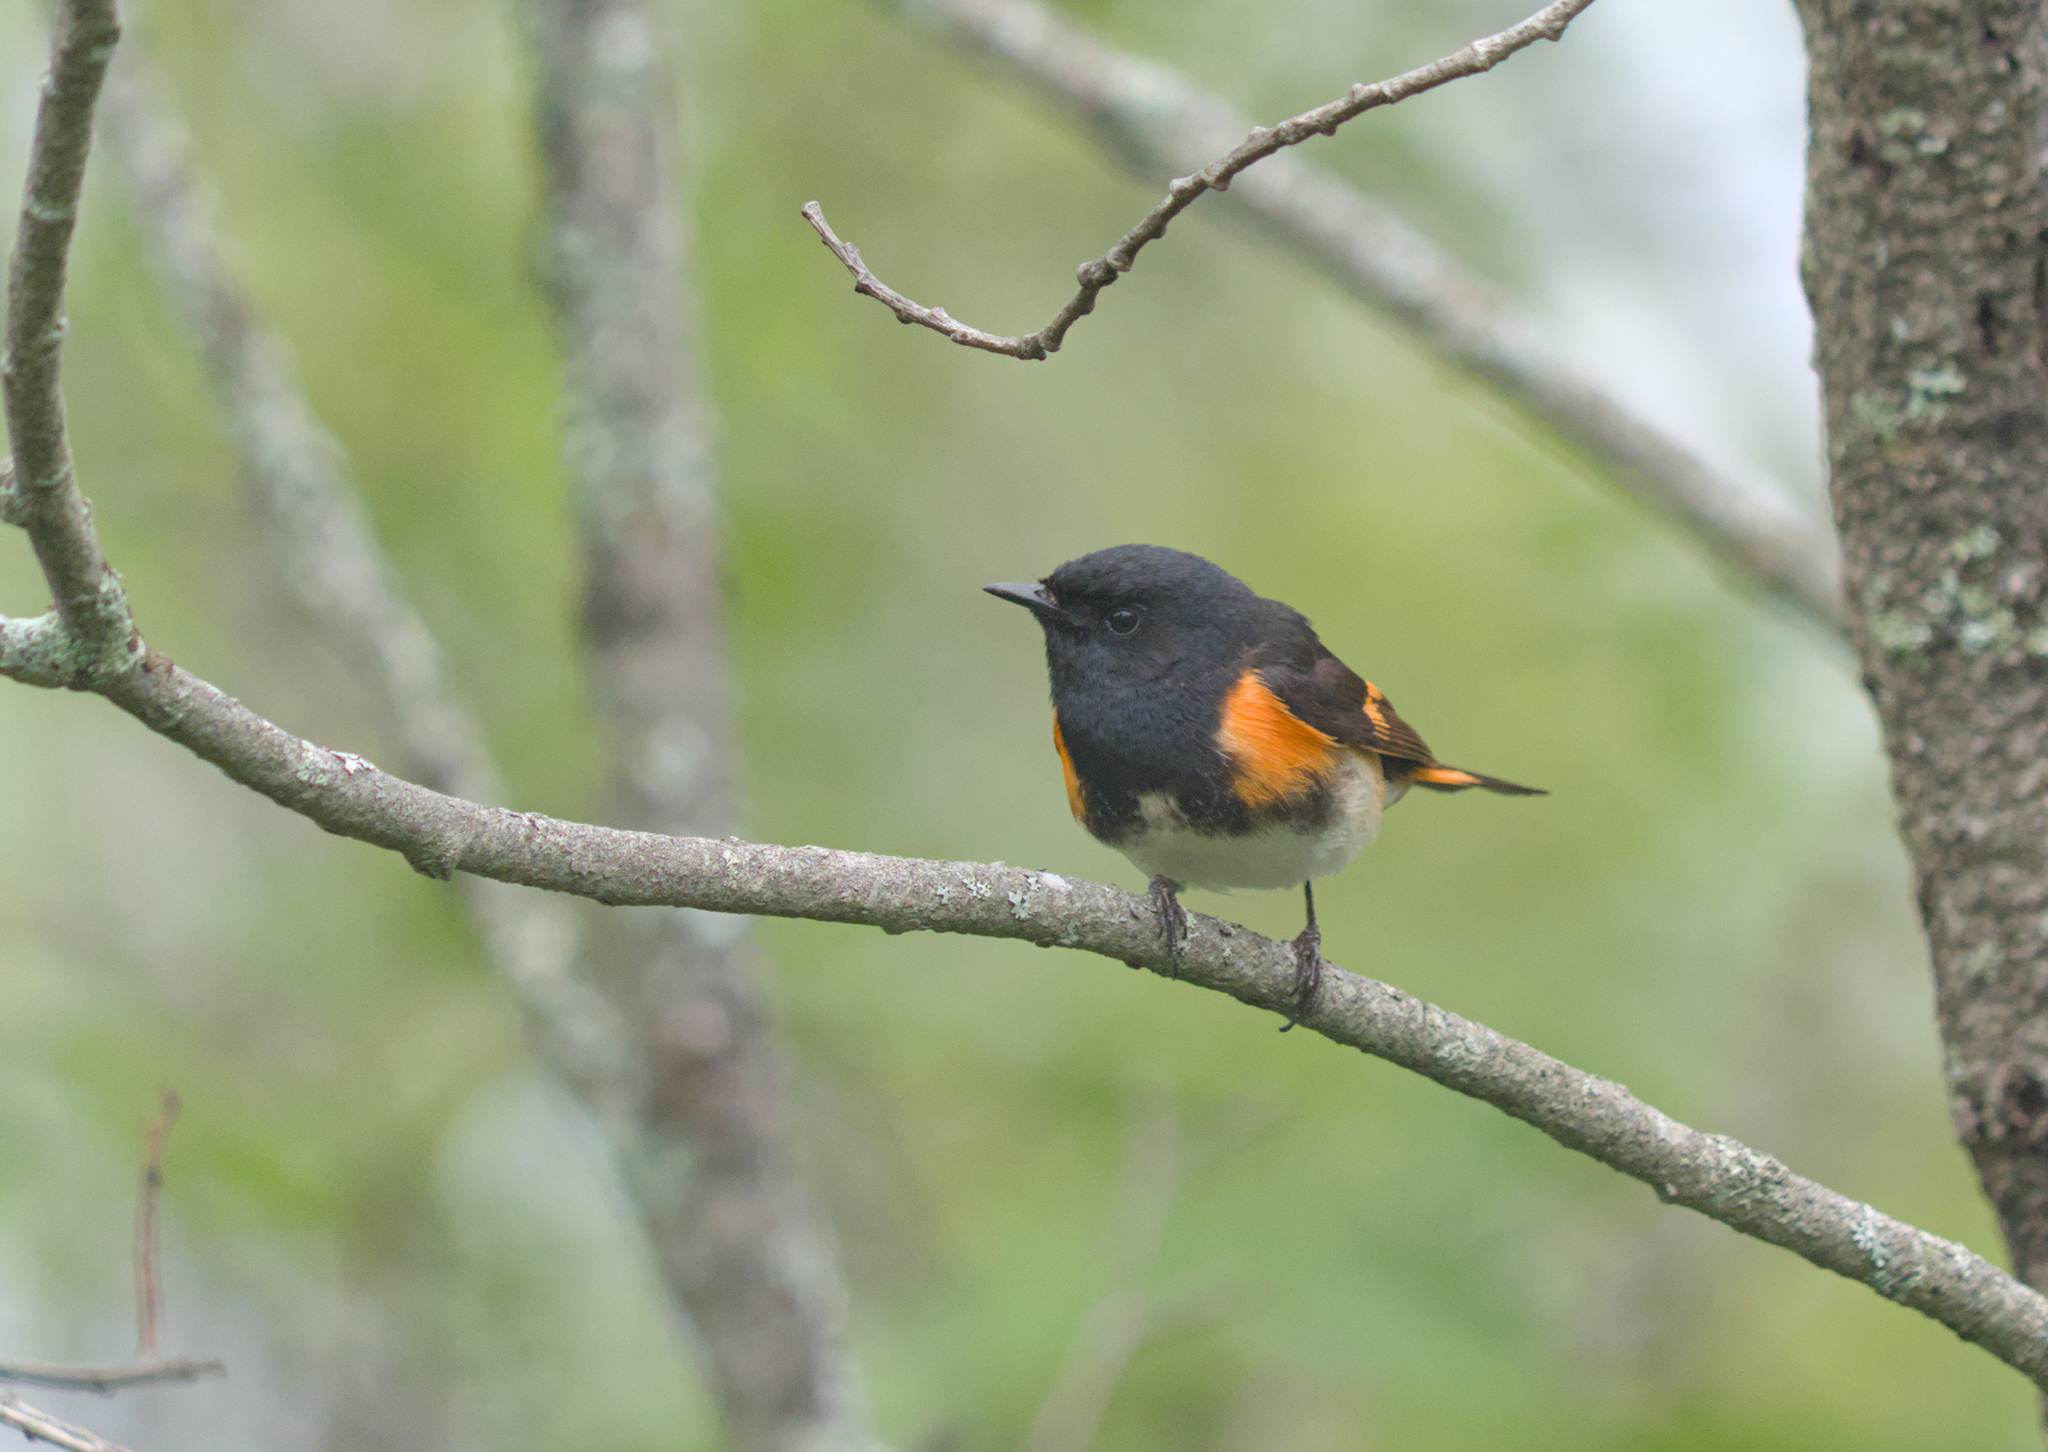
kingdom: Animalia
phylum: Chordata
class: Aves
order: Passeriformes
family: Parulidae
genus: Setophaga
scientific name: Setophaga ruticilla
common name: American redstart
